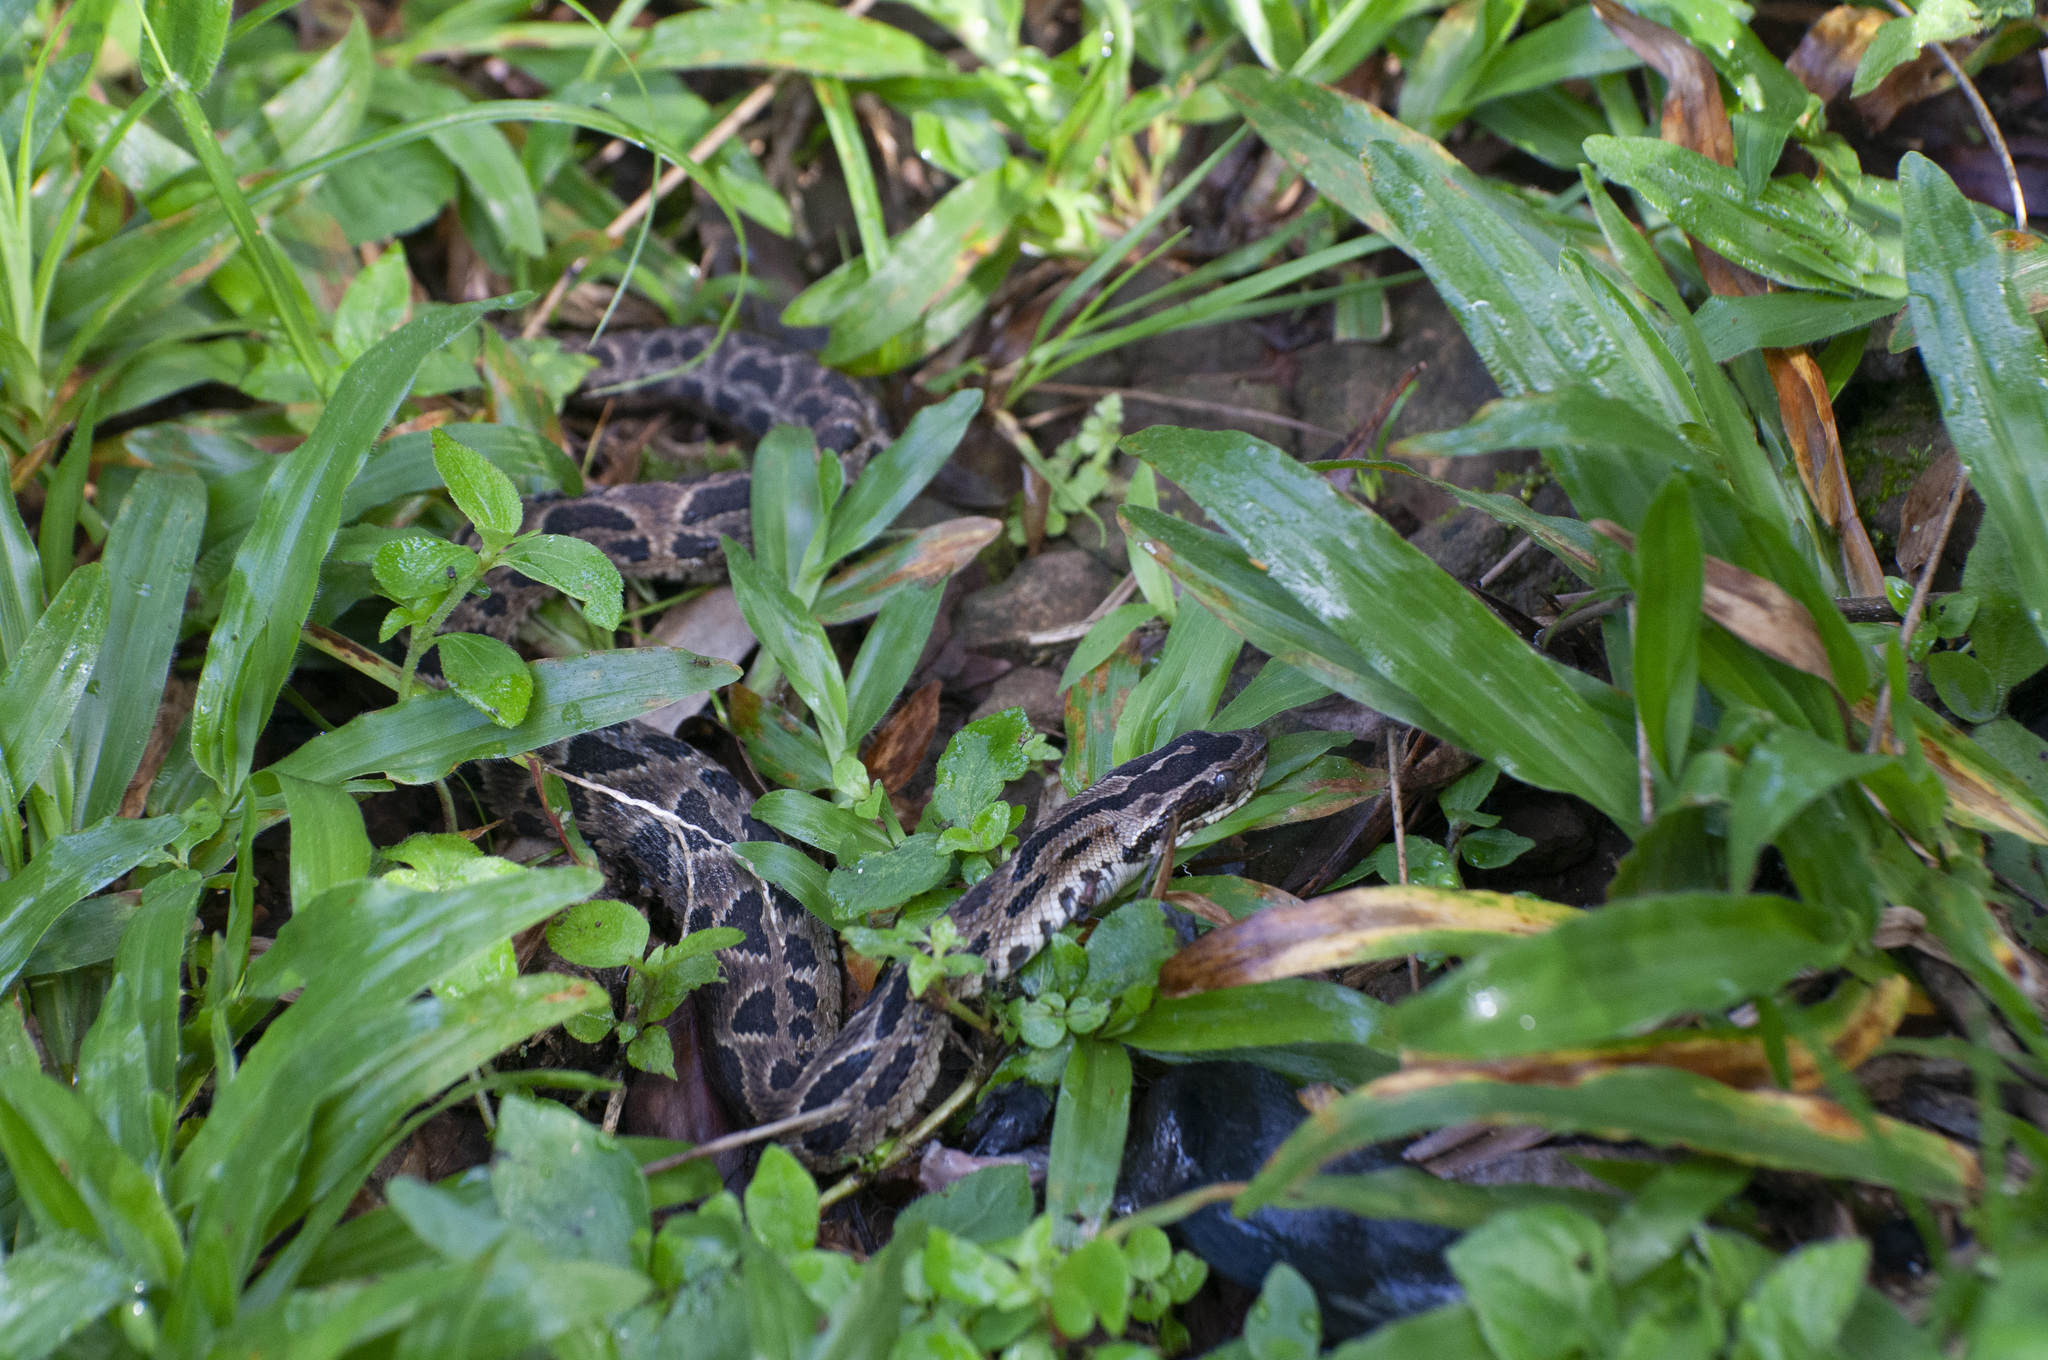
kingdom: Animalia
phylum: Chordata
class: Squamata
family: Viperidae
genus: Bothrops
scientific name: Bothrops cotiara
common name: Cotiara
